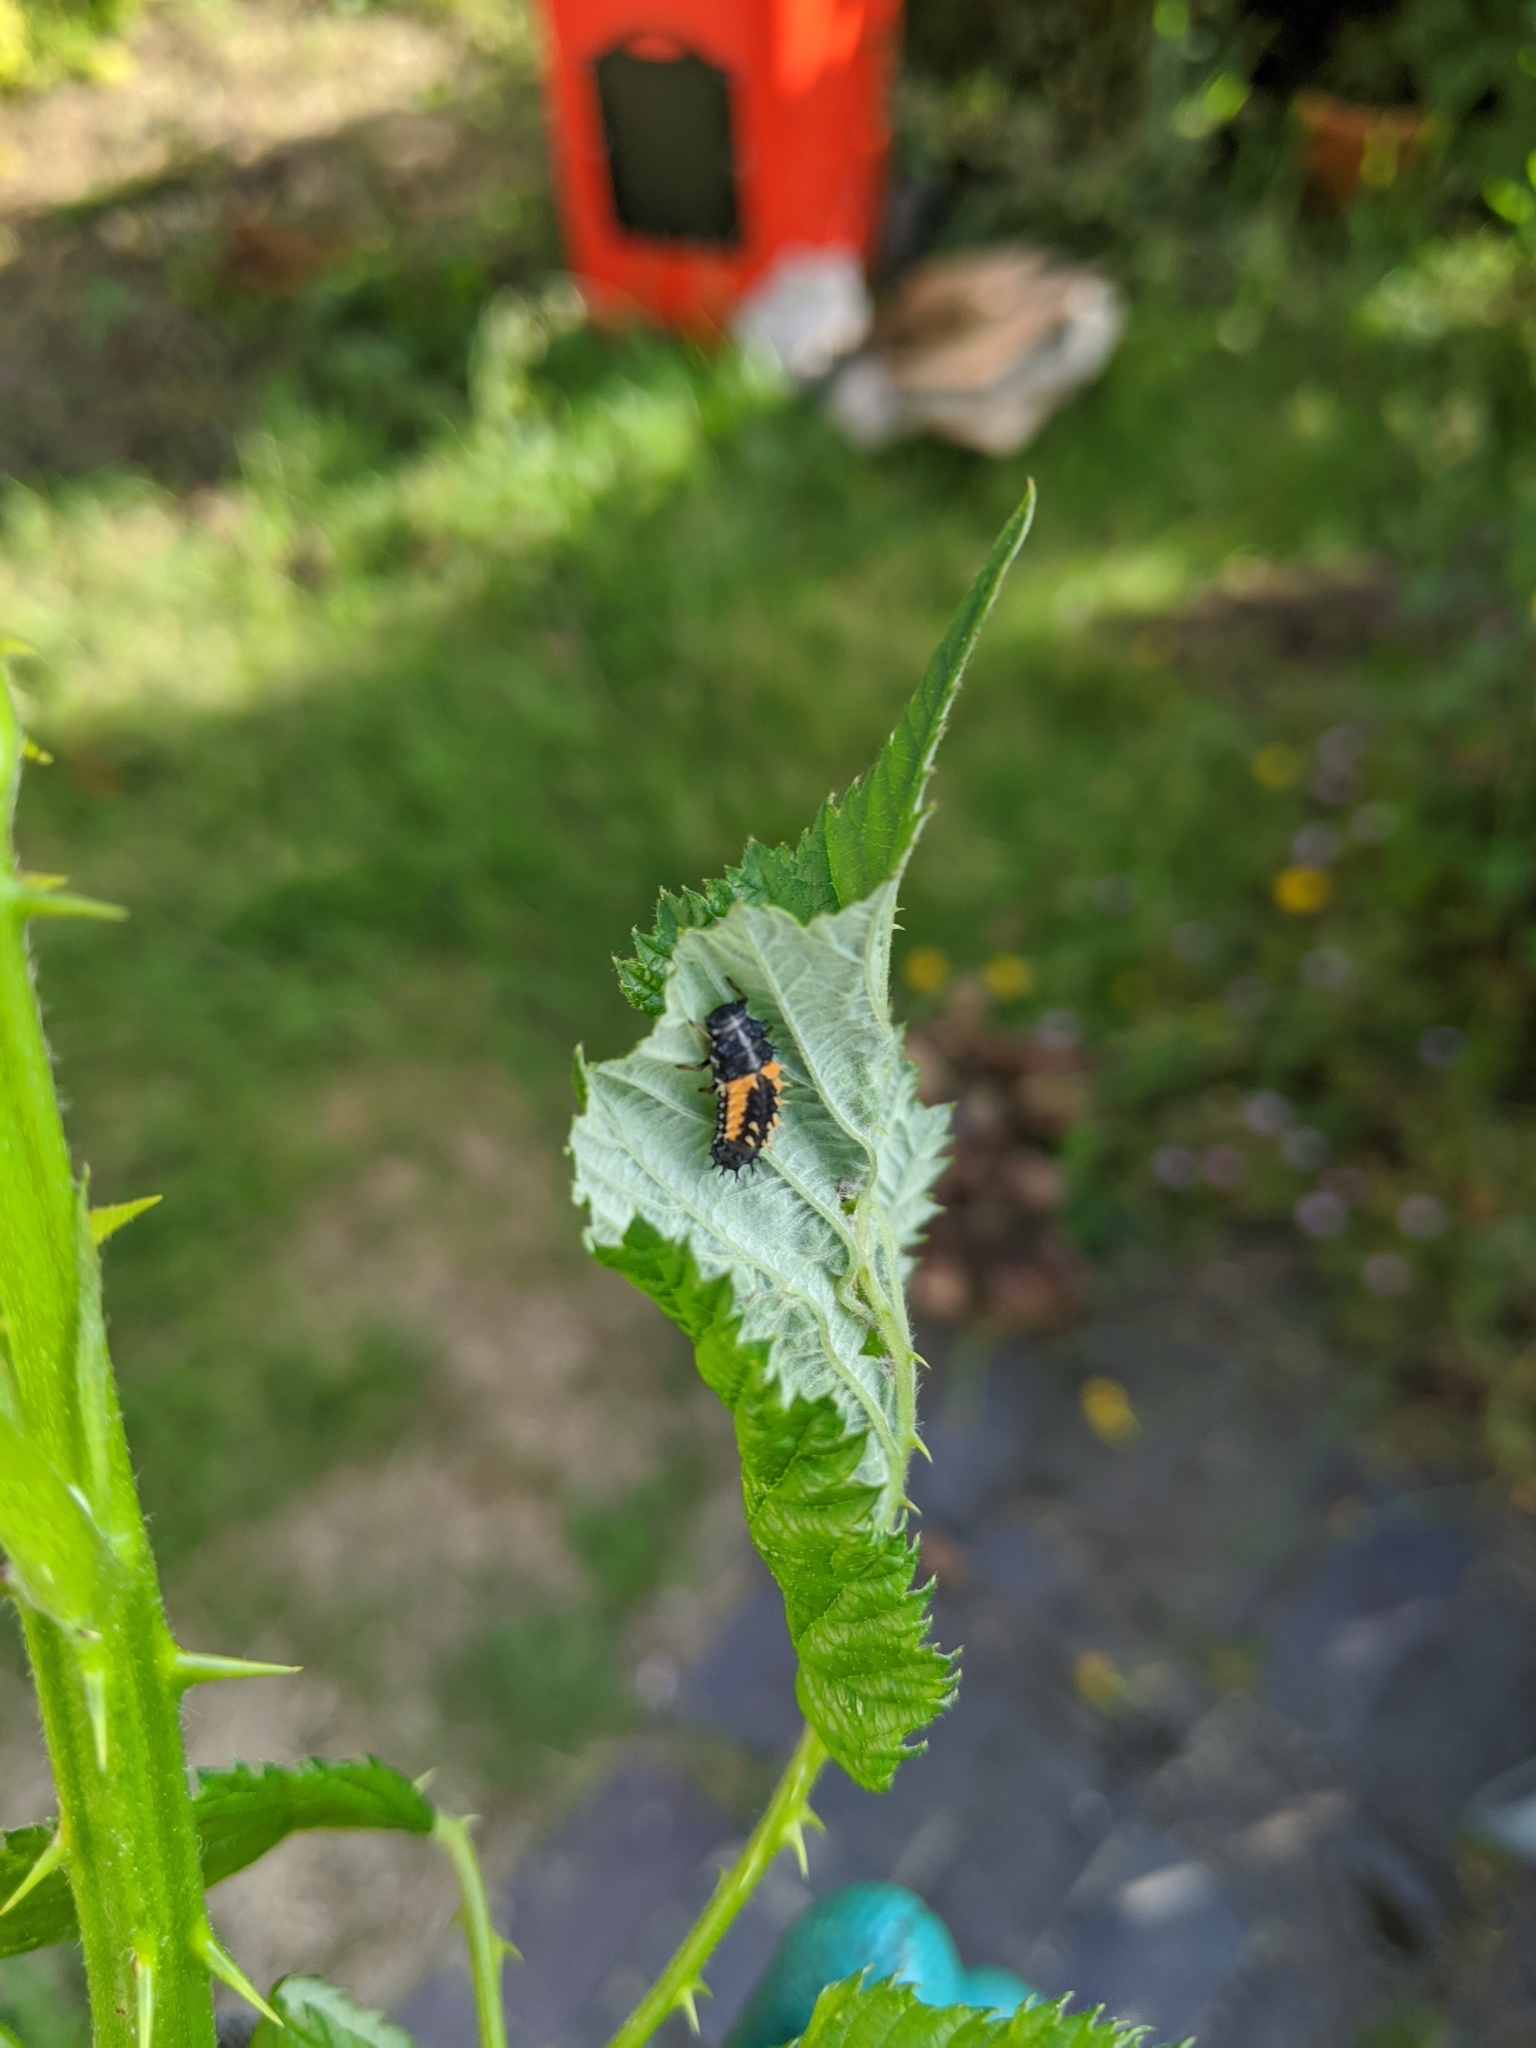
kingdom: Animalia
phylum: Arthropoda
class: Insecta
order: Coleoptera
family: Coccinellidae
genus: Harmonia
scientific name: Harmonia axyridis
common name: Harlequin ladybird
